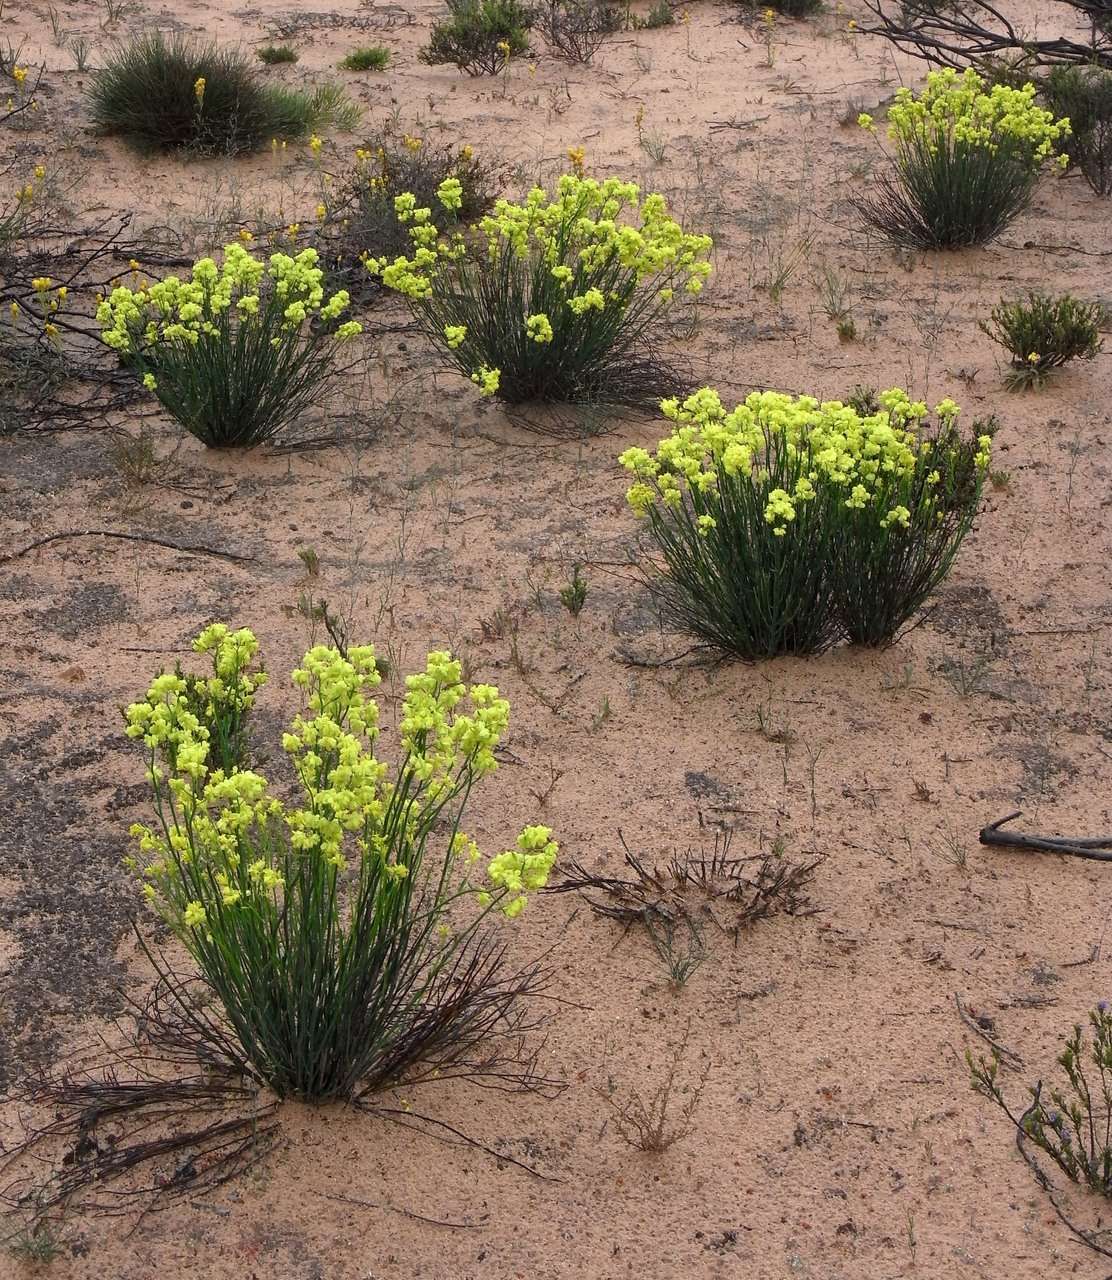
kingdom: Plantae
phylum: Tracheophyta
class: Magnoliopsida
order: Saxifragales
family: Haloragaceae
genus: Glischrocaryon
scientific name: Glischrocaryon behrii
